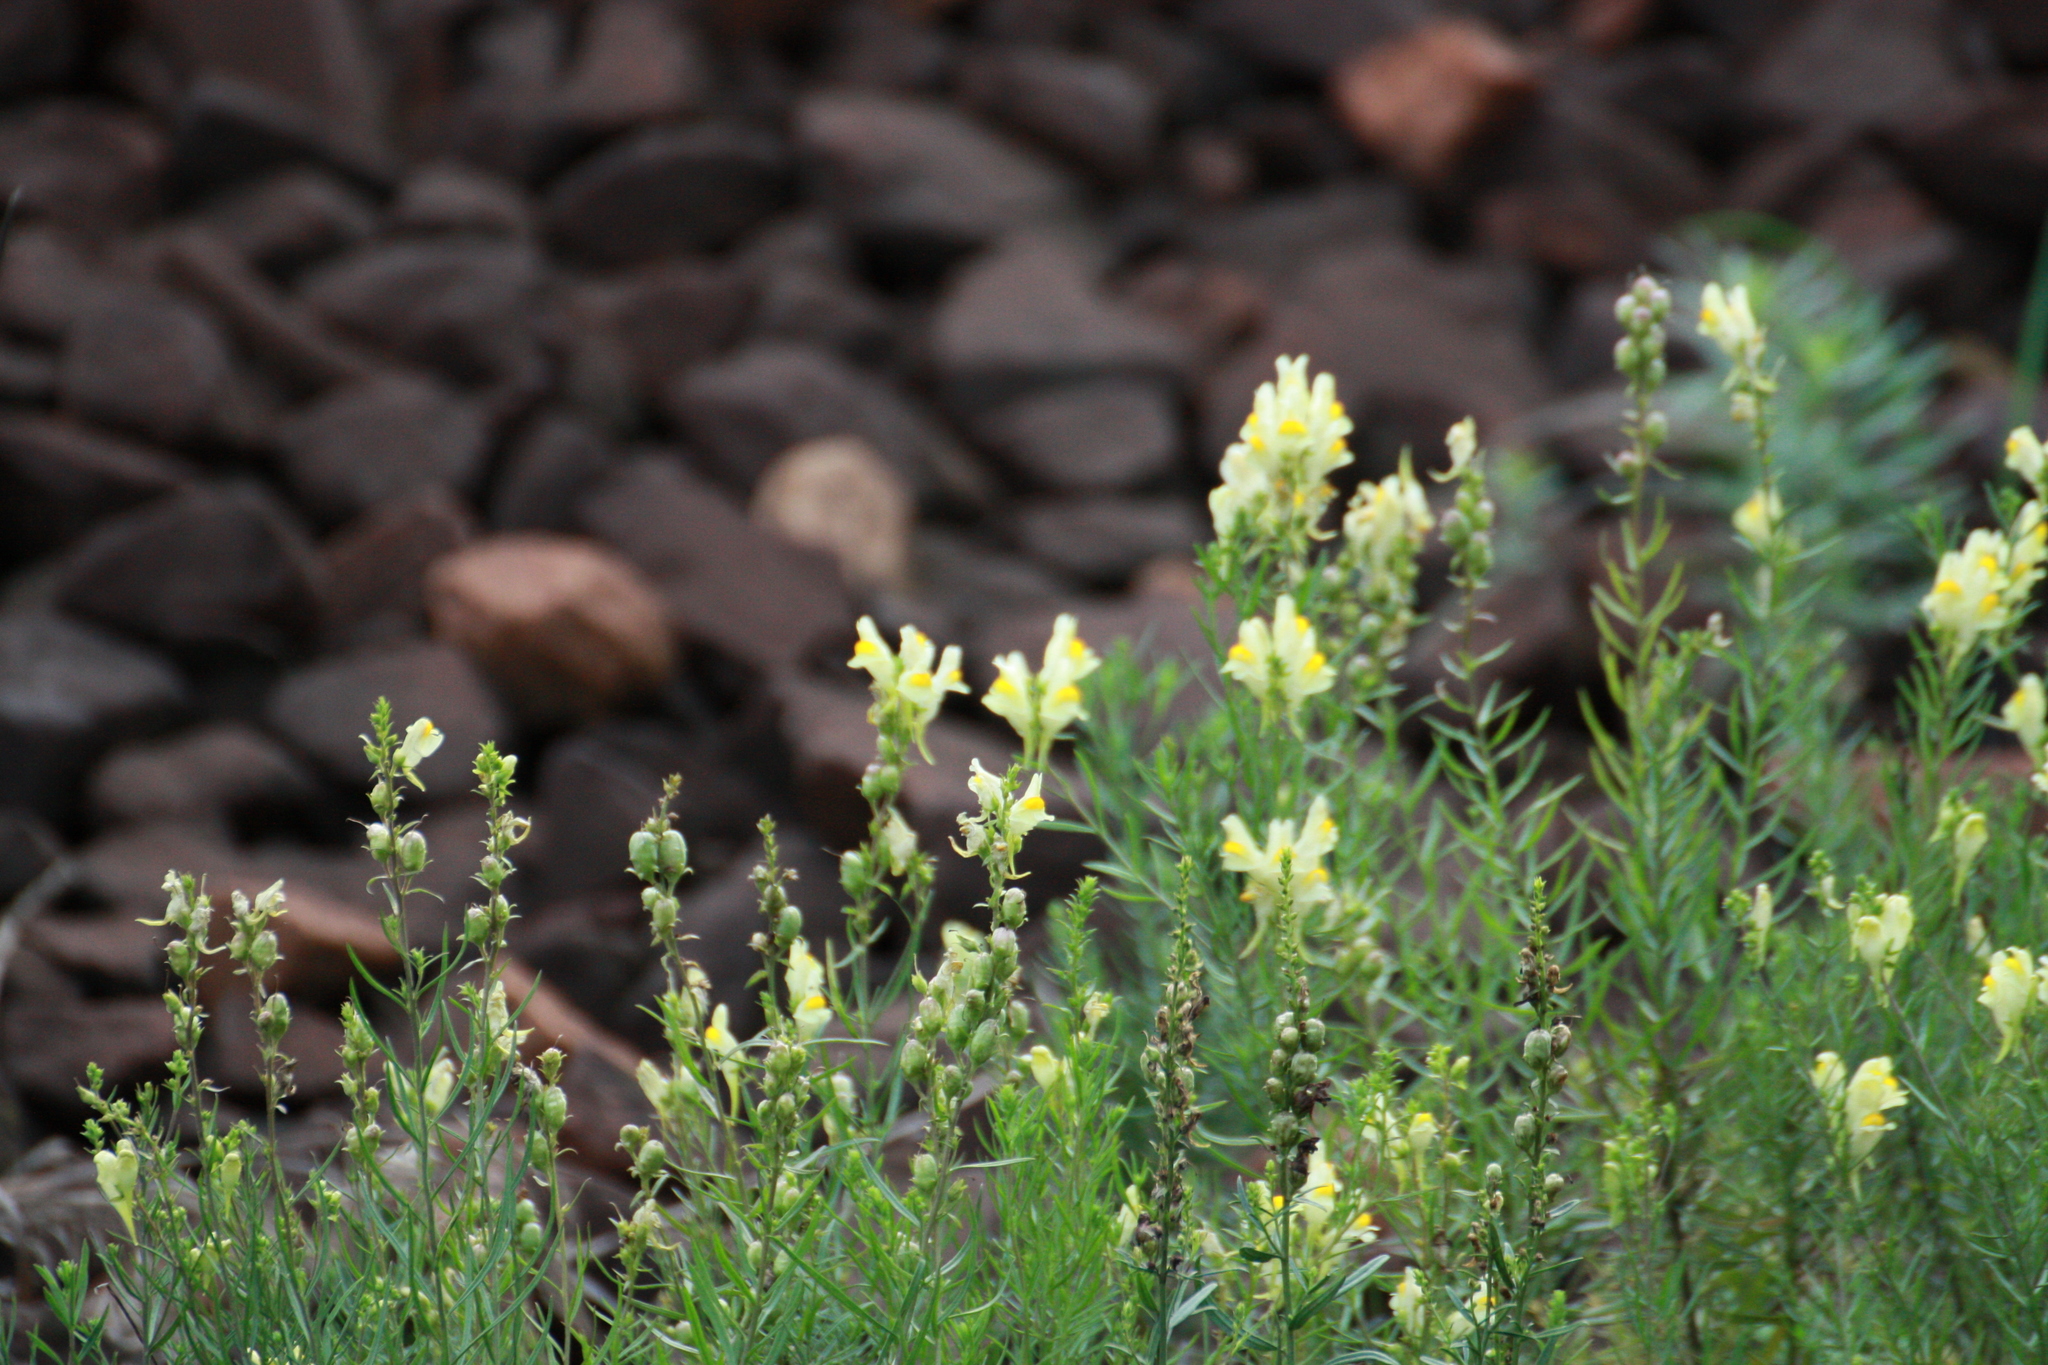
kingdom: Plantae
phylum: Tracheophyta
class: Magnoliopsida
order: Lamiales
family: Plantaginaceae
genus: Linaria
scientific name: Linaria vulgaris
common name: Butter and eggs
